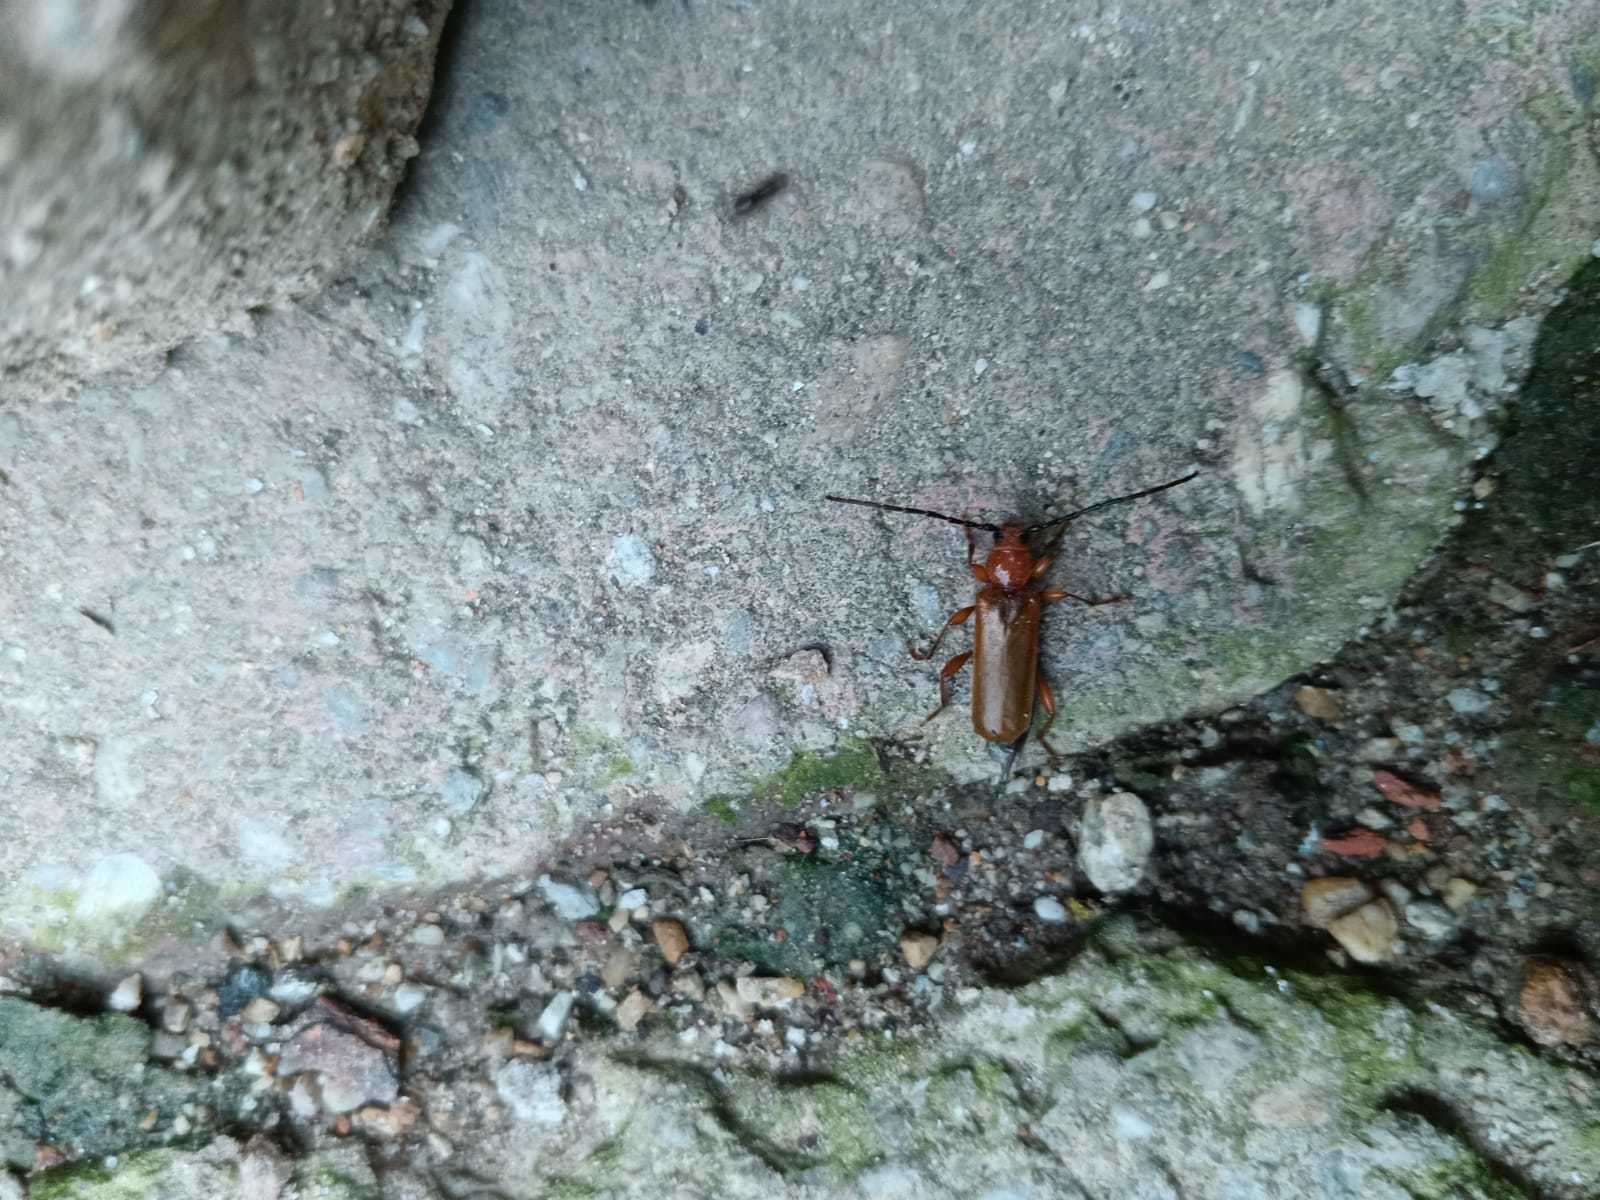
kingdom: Animalia
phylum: Arthropoda
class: Insecta
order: Coleoptera
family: Cerambycidae
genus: Phymatodes
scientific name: Phymatodes testaceus
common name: Long-horned beetle
